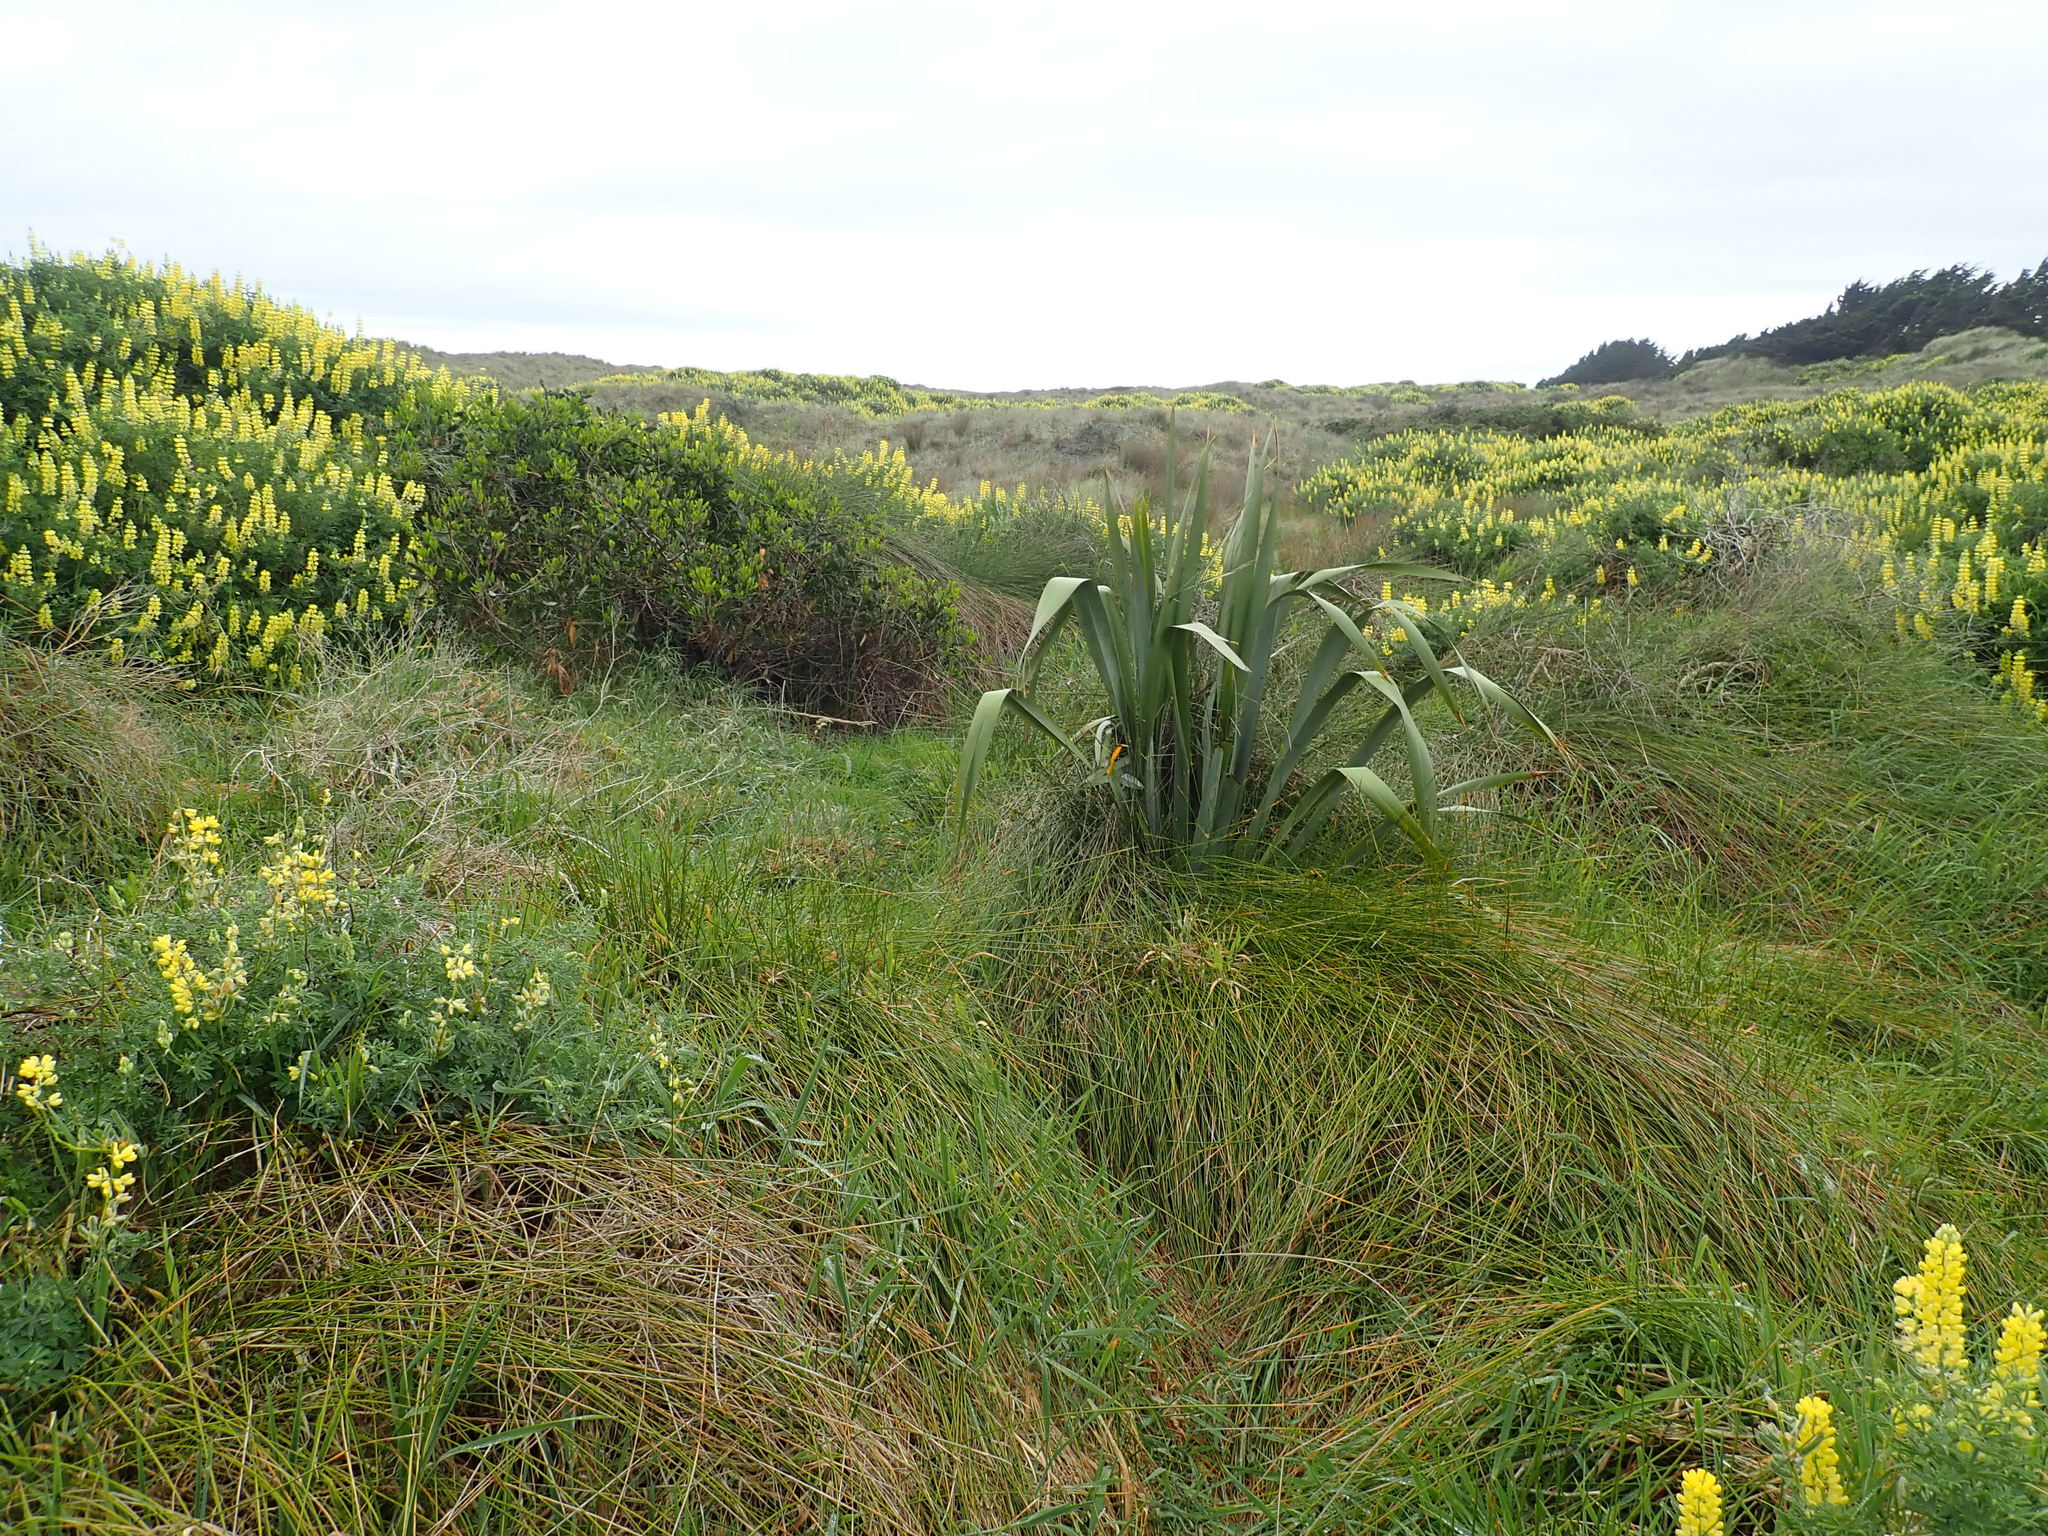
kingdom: Plantae
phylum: Tracheophyta
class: Liliopsida
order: Asparagales
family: Asphodelaceae
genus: Phormium
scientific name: Phormium tenax
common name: New zealand flax
